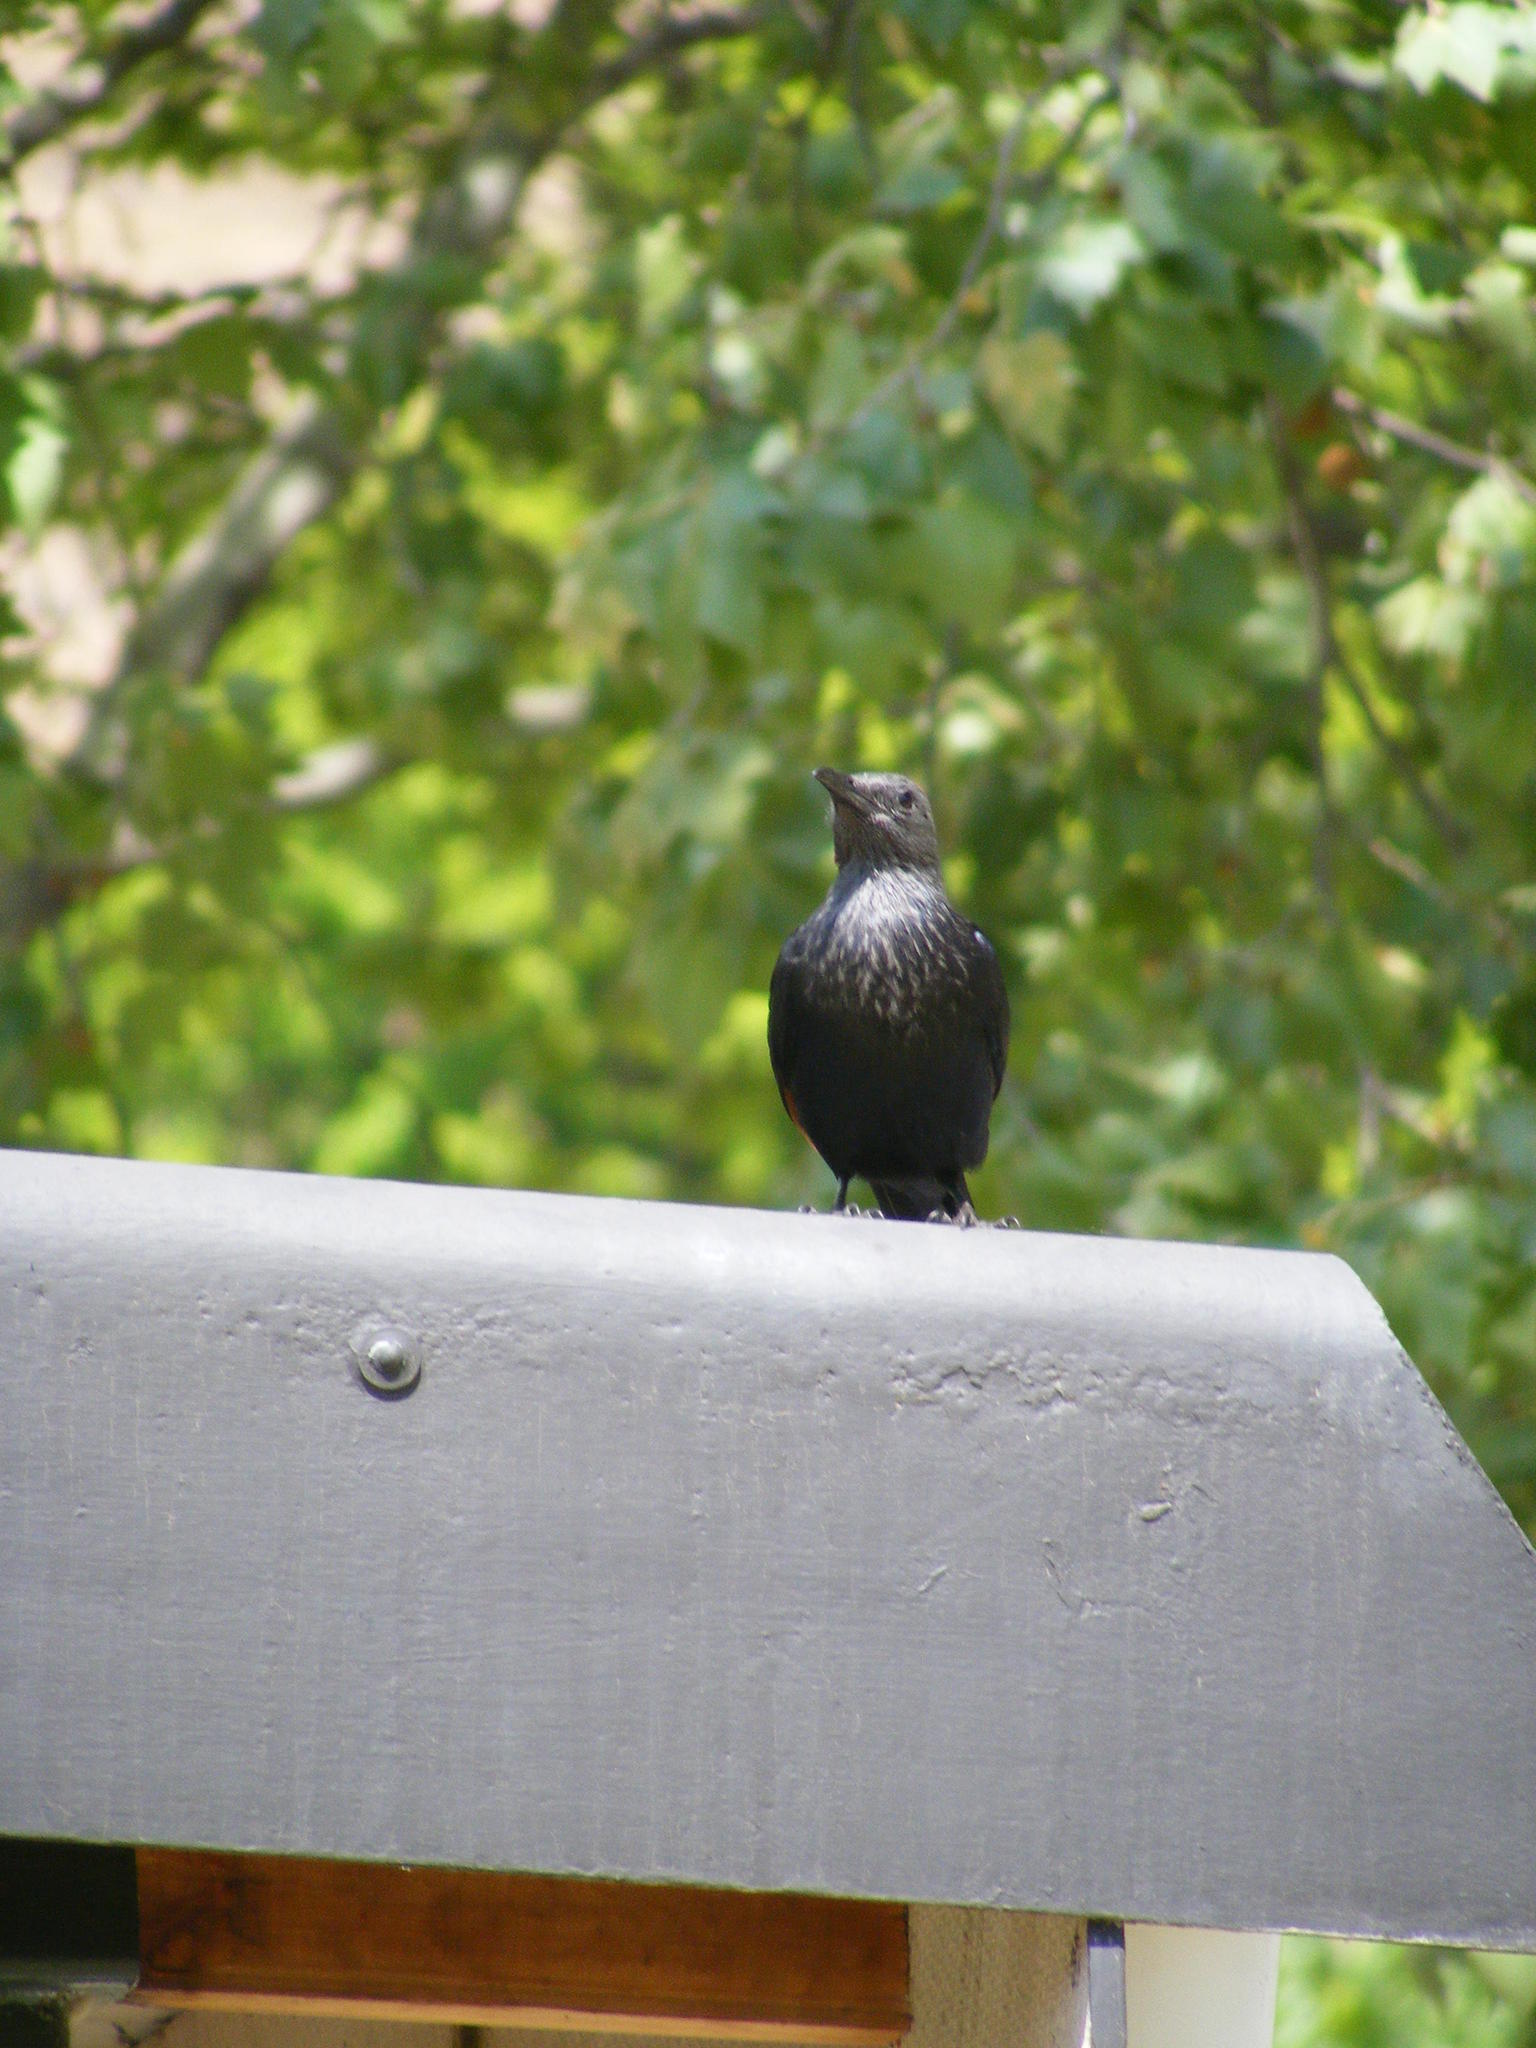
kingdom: Animalia
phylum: Chordata
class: Aves
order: Passeriformes
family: Sturnidae
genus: Onychognathus
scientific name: Onychognathus morio
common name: Red-winged starling
